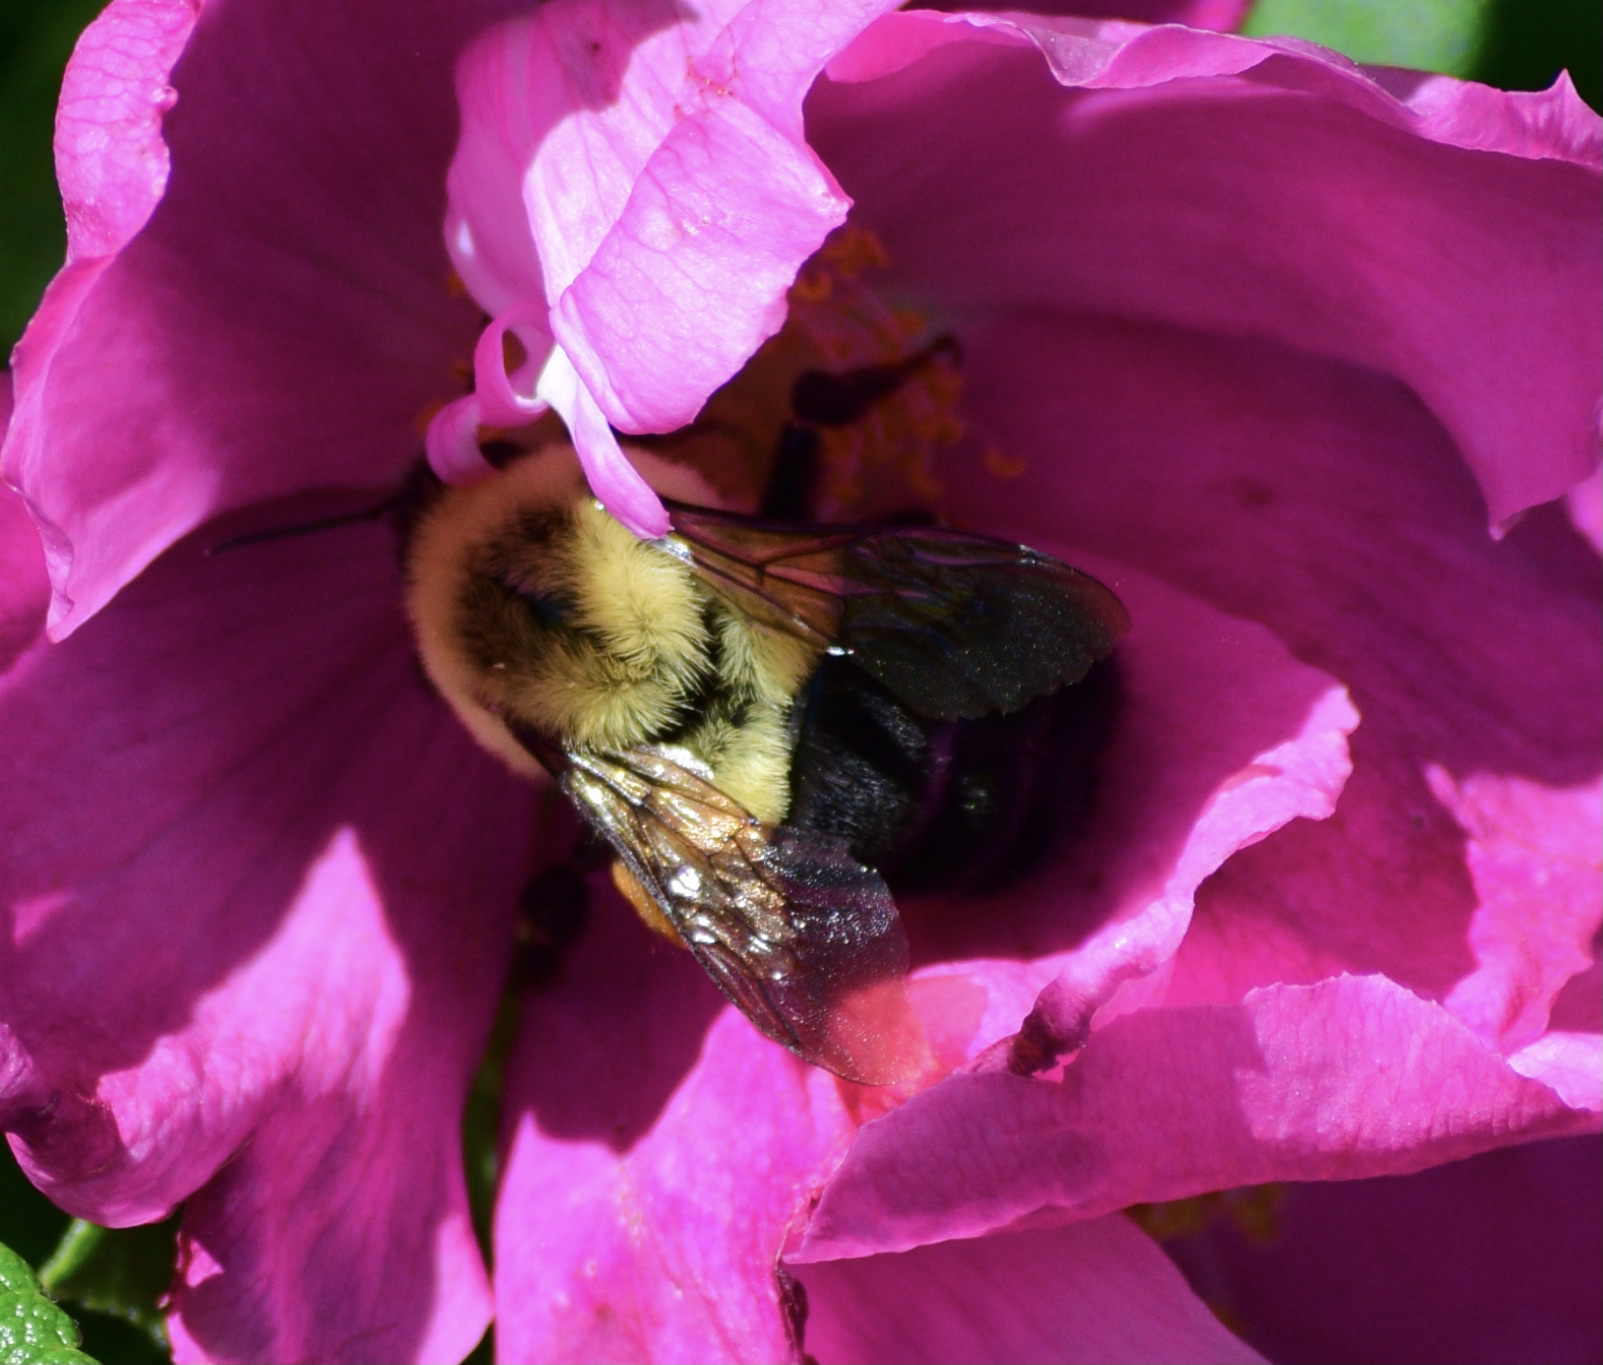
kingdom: Animalia
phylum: Arthropoda
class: Insecta
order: Hymenoptera
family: Apidae
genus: Bombus
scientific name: Bombus impatiens
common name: Common eastern bumble bee
